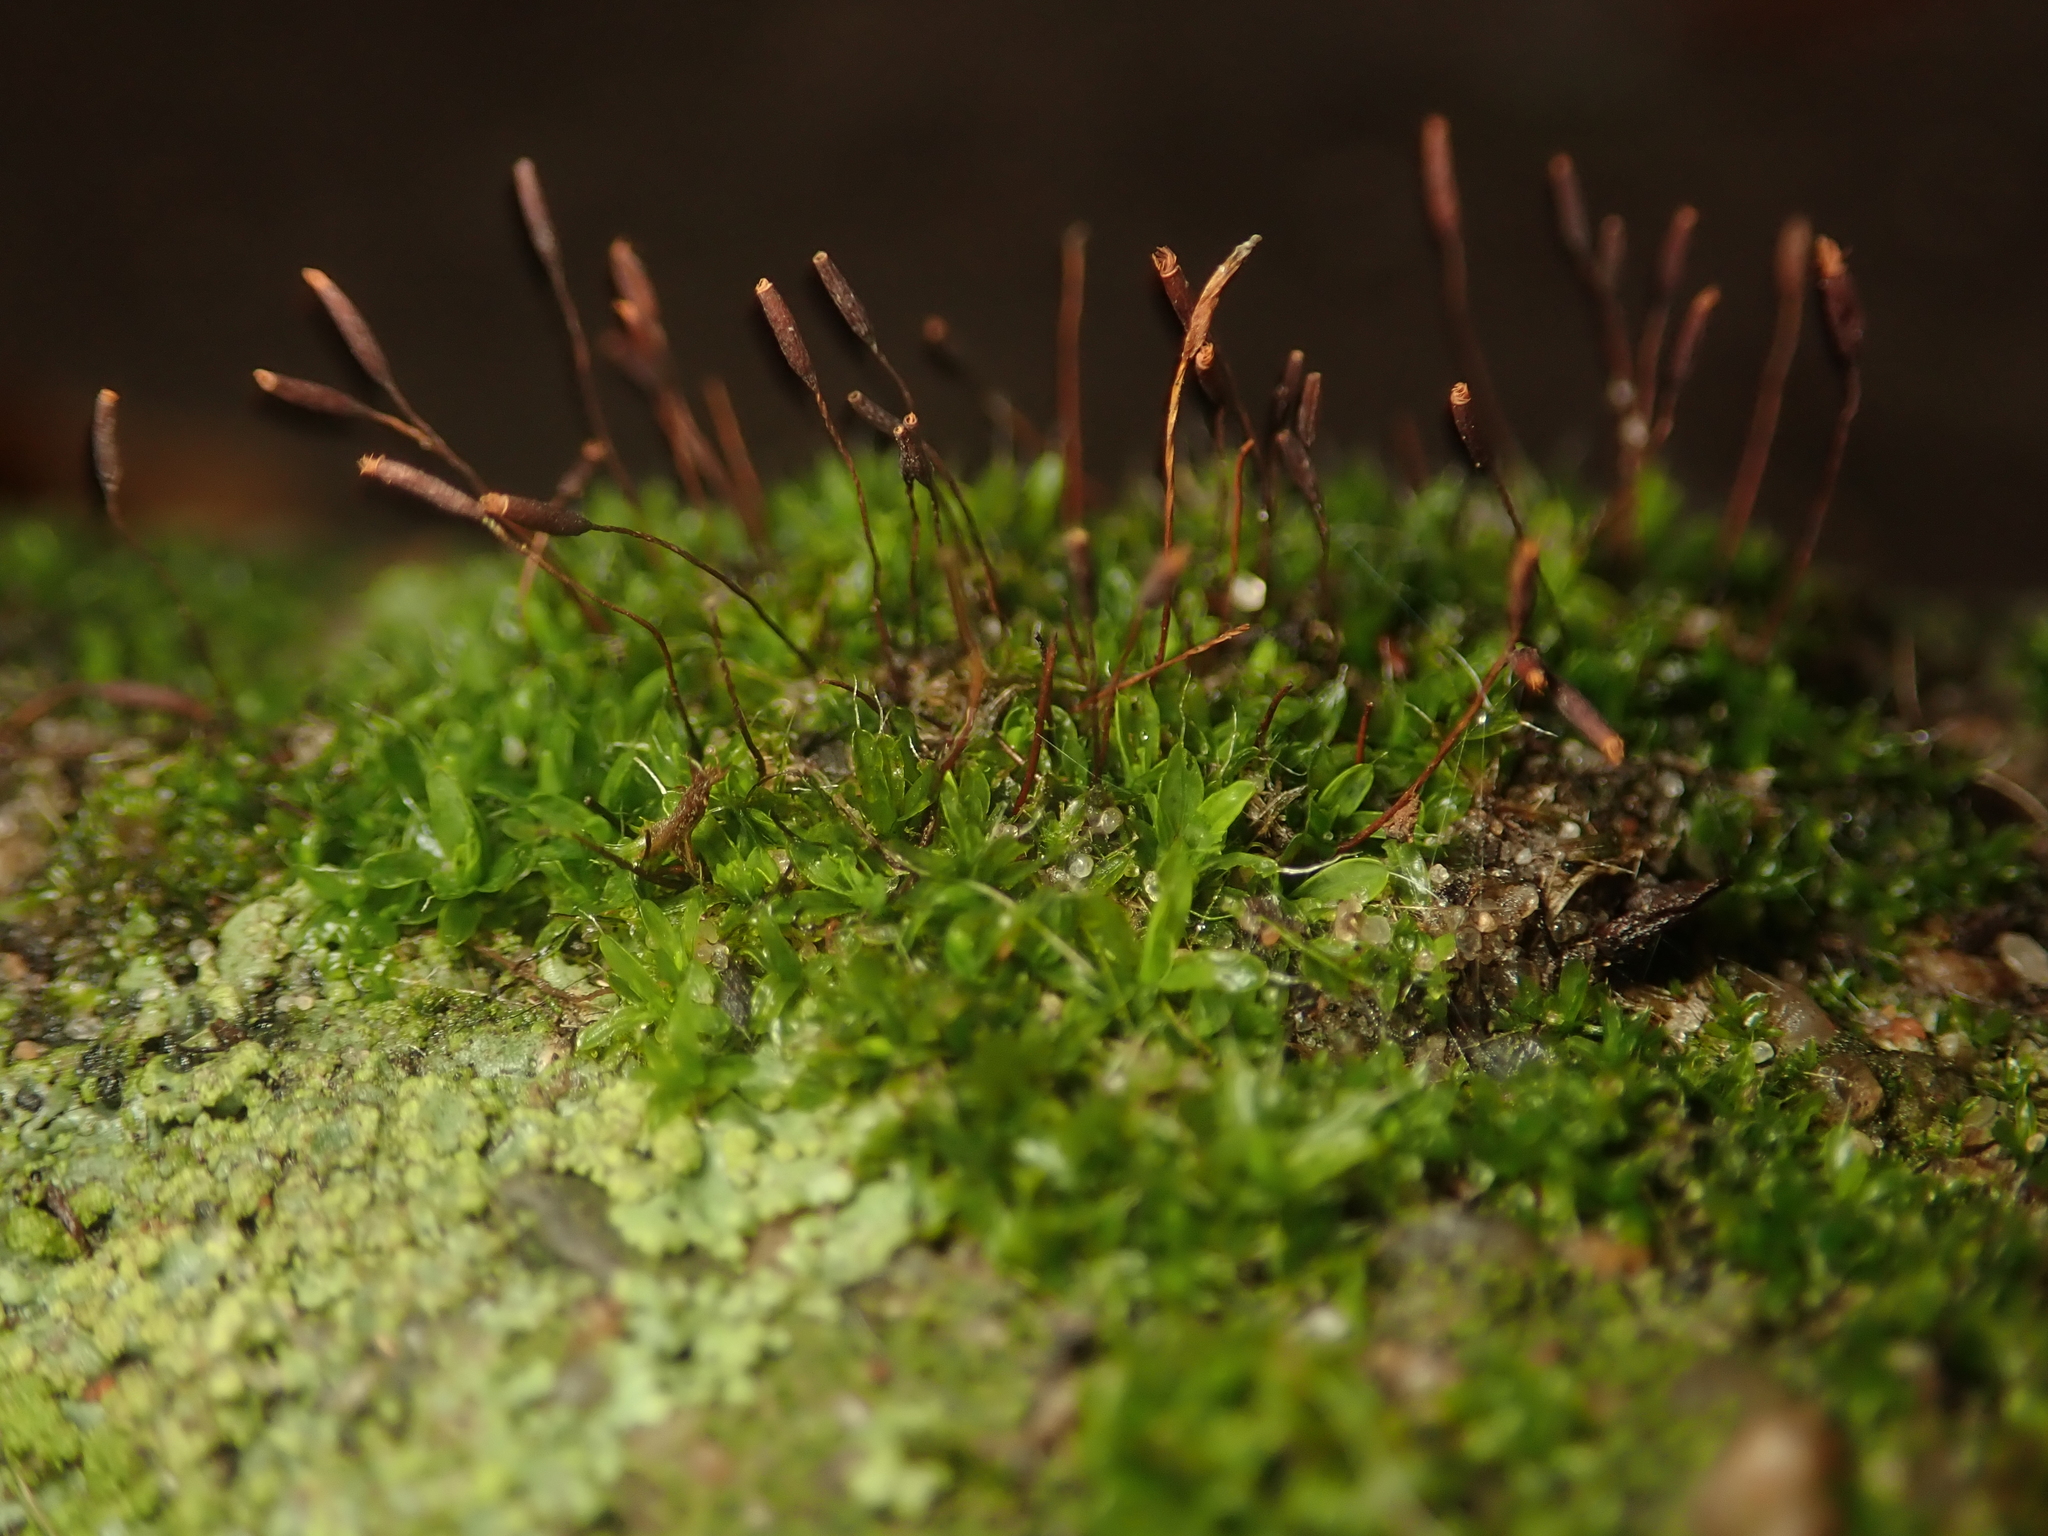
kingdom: Plantae
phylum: Bryophyta
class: Bryopsida
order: Pottiales
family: Pottiaceae
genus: Tortula
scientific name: Tortula muralis
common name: Wall screw-moss
